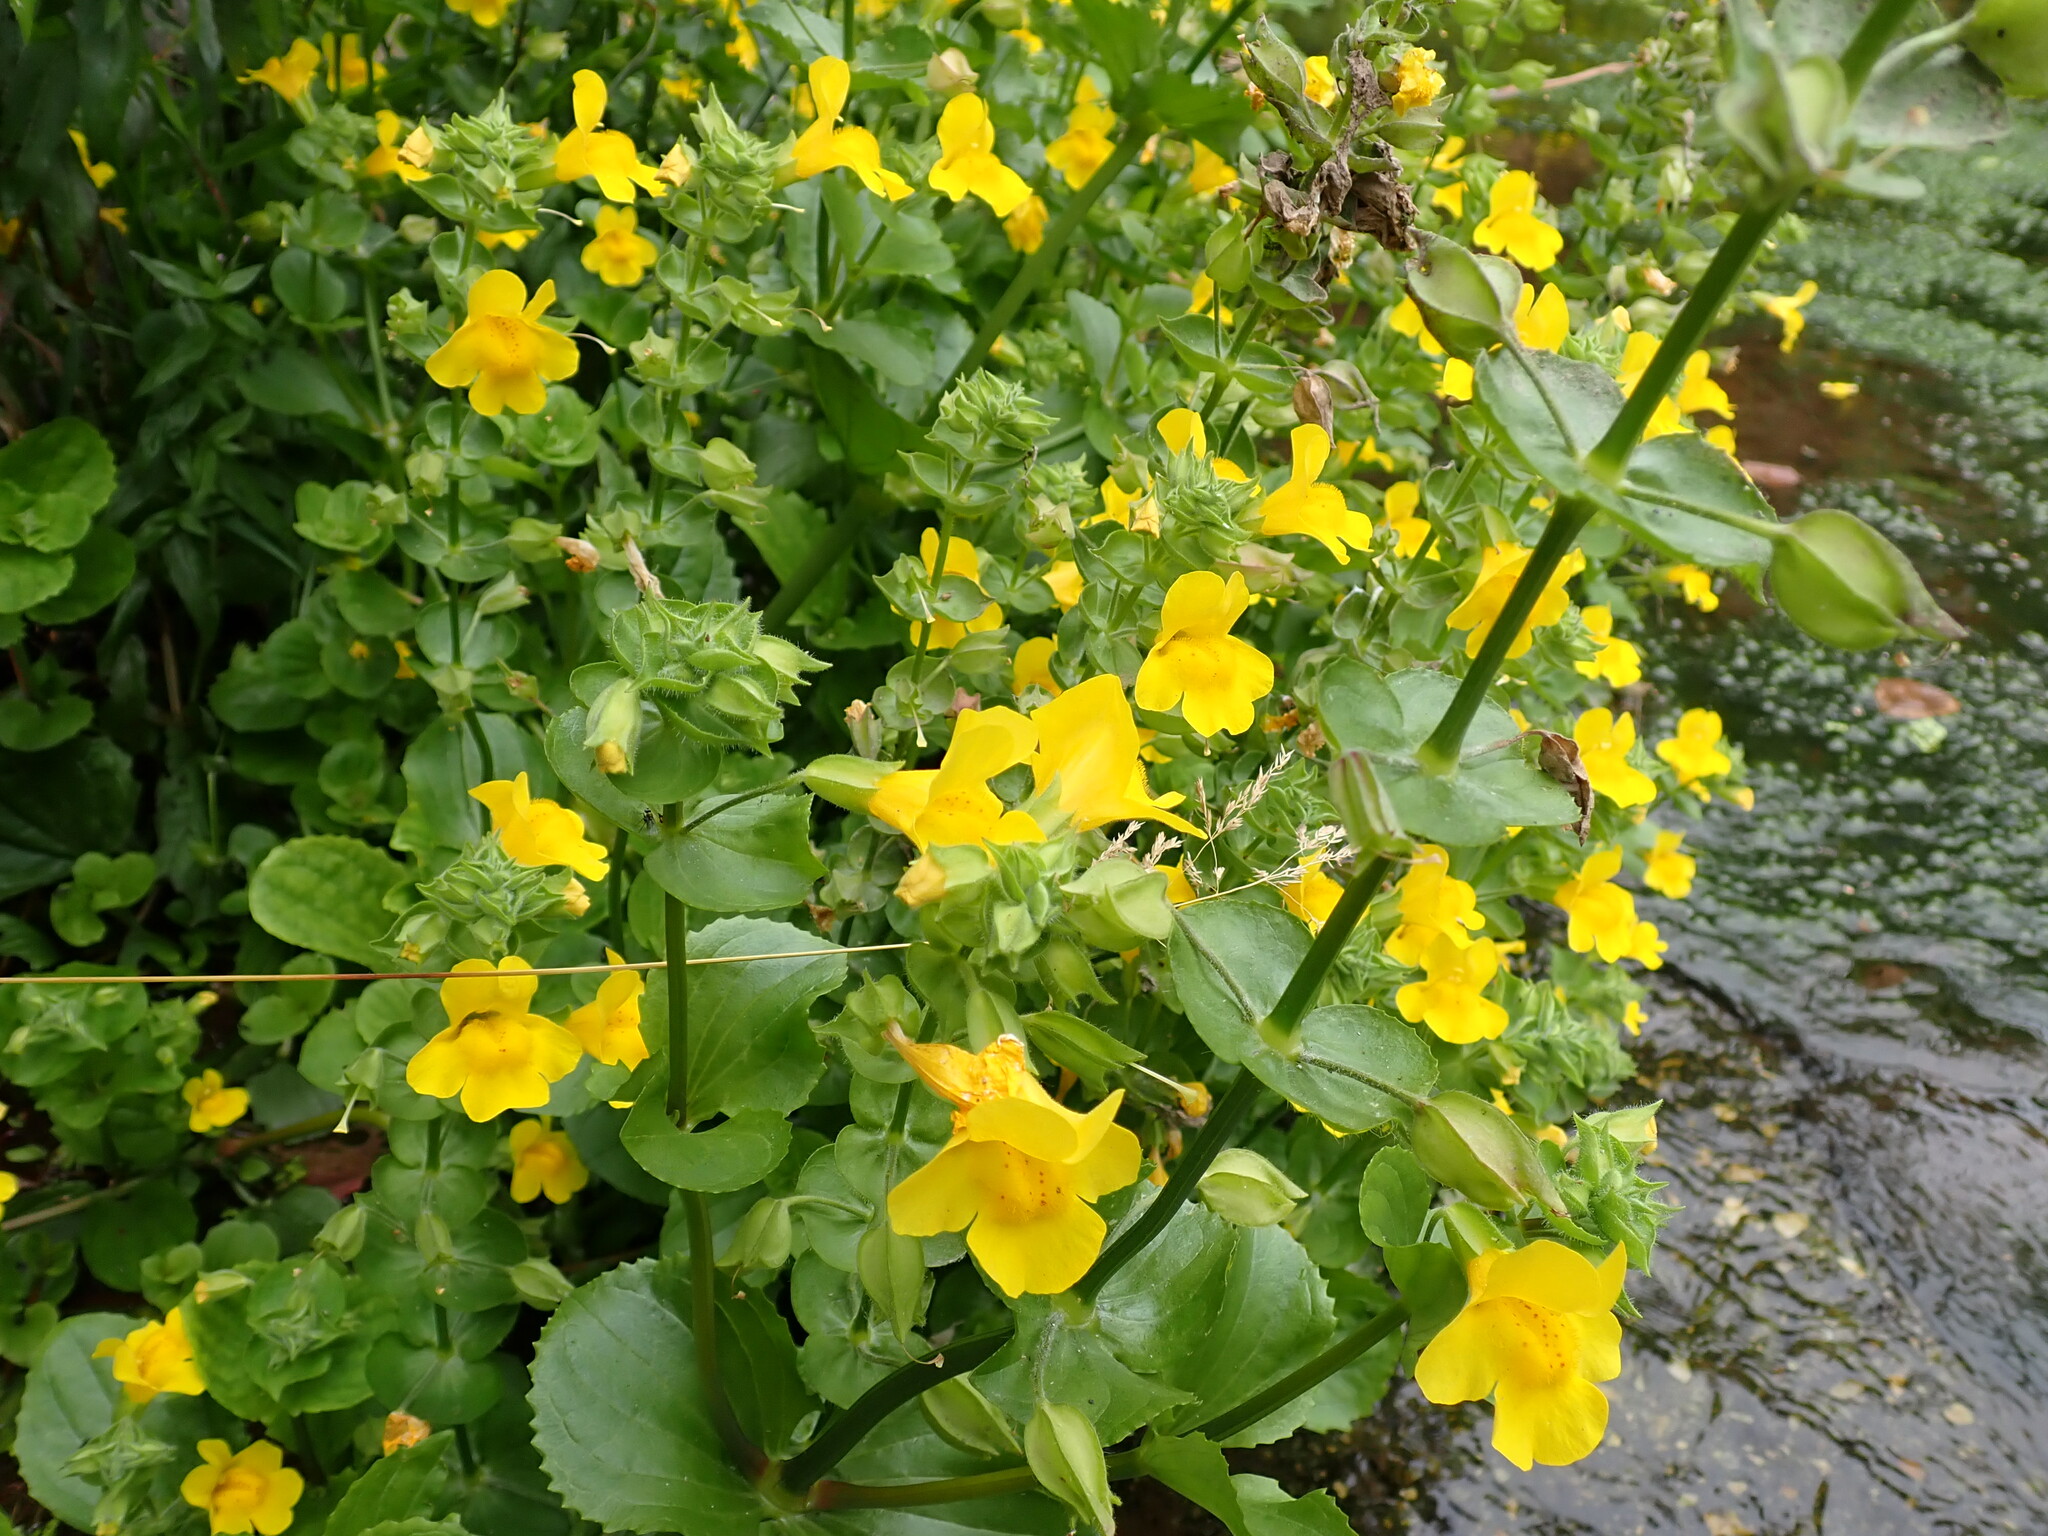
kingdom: Plantae
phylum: Tracheophyta
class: Magnoliopsida
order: Lamiales
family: Phrymaceae
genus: Erythranthe
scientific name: Erythranthe guttata
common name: Monkeyflower
